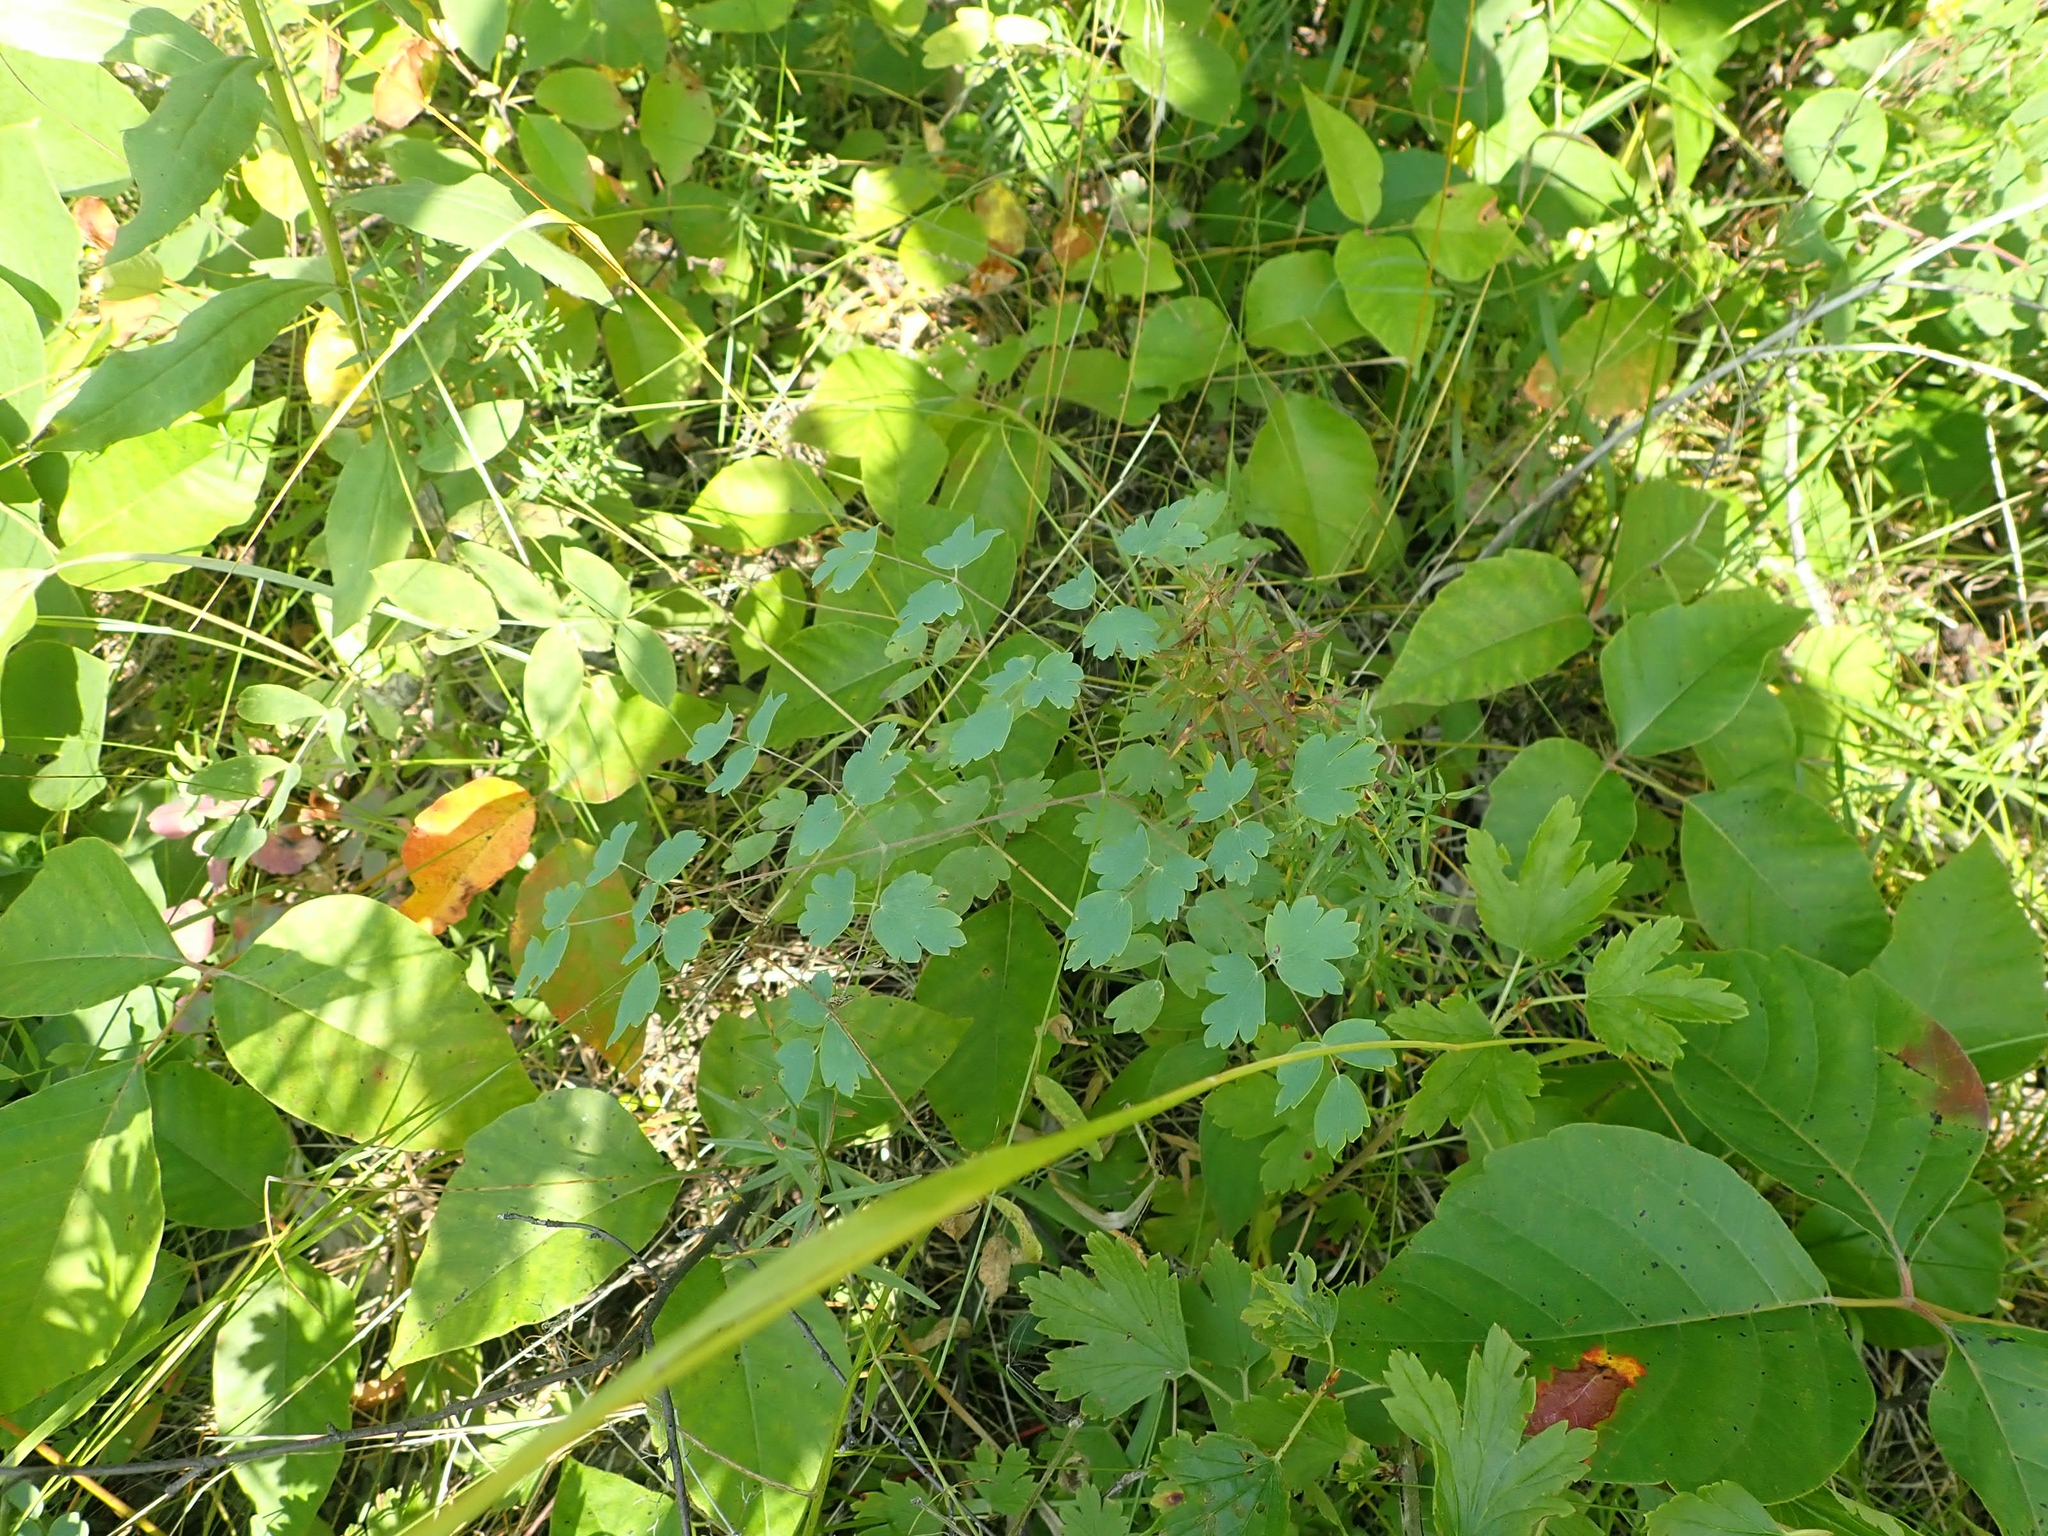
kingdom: Plantae
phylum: Tracheophyta
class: Magnoliopsida
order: Ranunculales
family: Ranunculaceae
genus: Thalictrum
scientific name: Thalictrum venulosum
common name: Early meadow-rue
